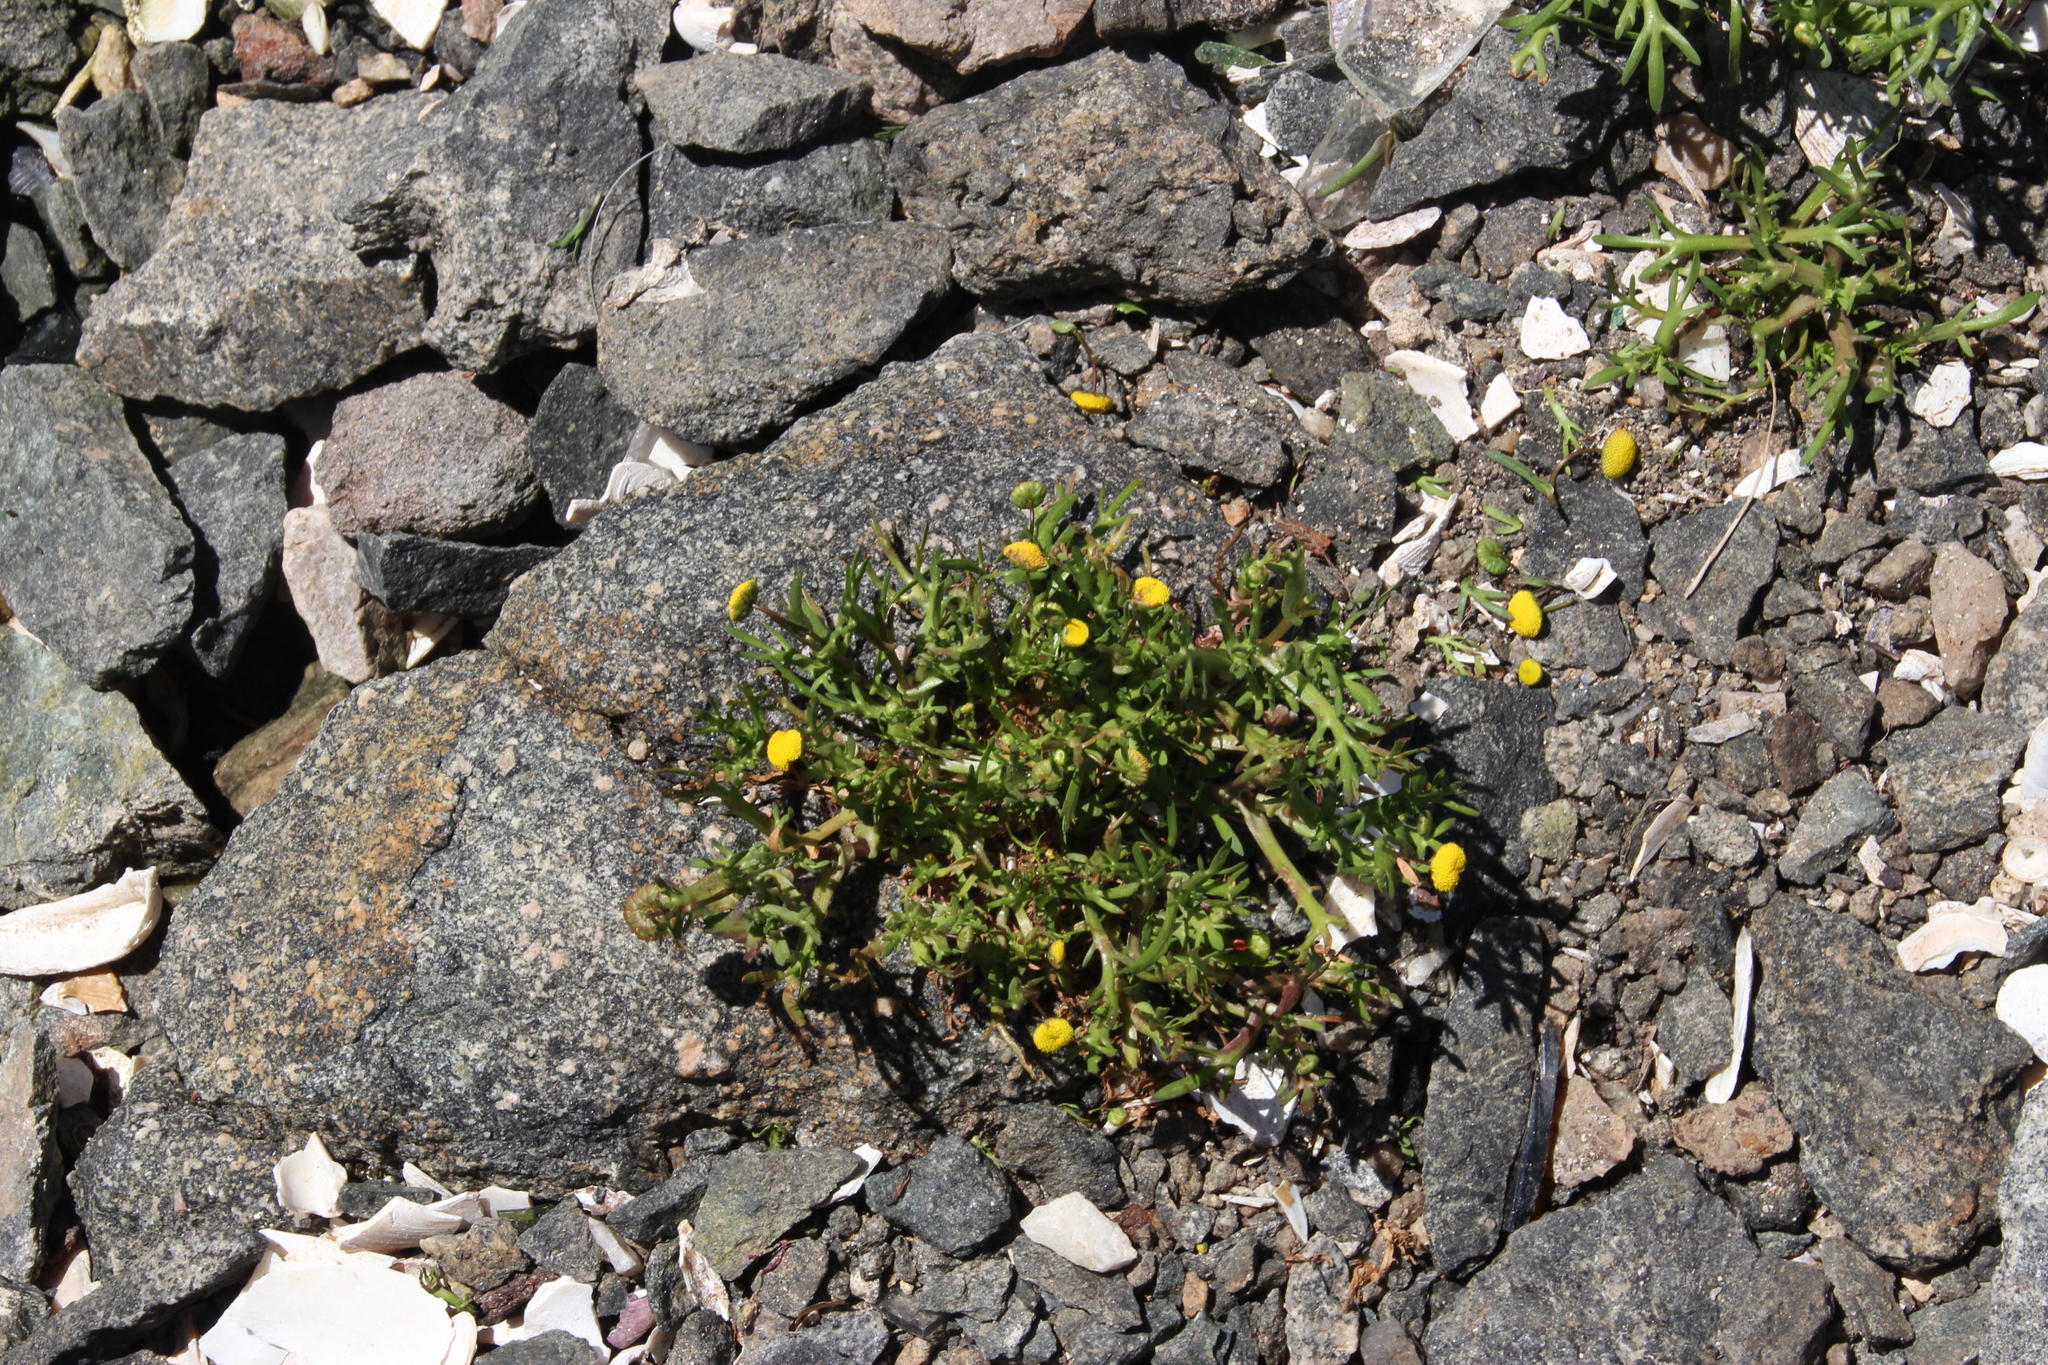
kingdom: Plantae
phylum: Tracheophyta
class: Magnoliopsida
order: Asterales
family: Asteraceae
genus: Cotula
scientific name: Cotula coronopifolia
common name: Buttonweed
